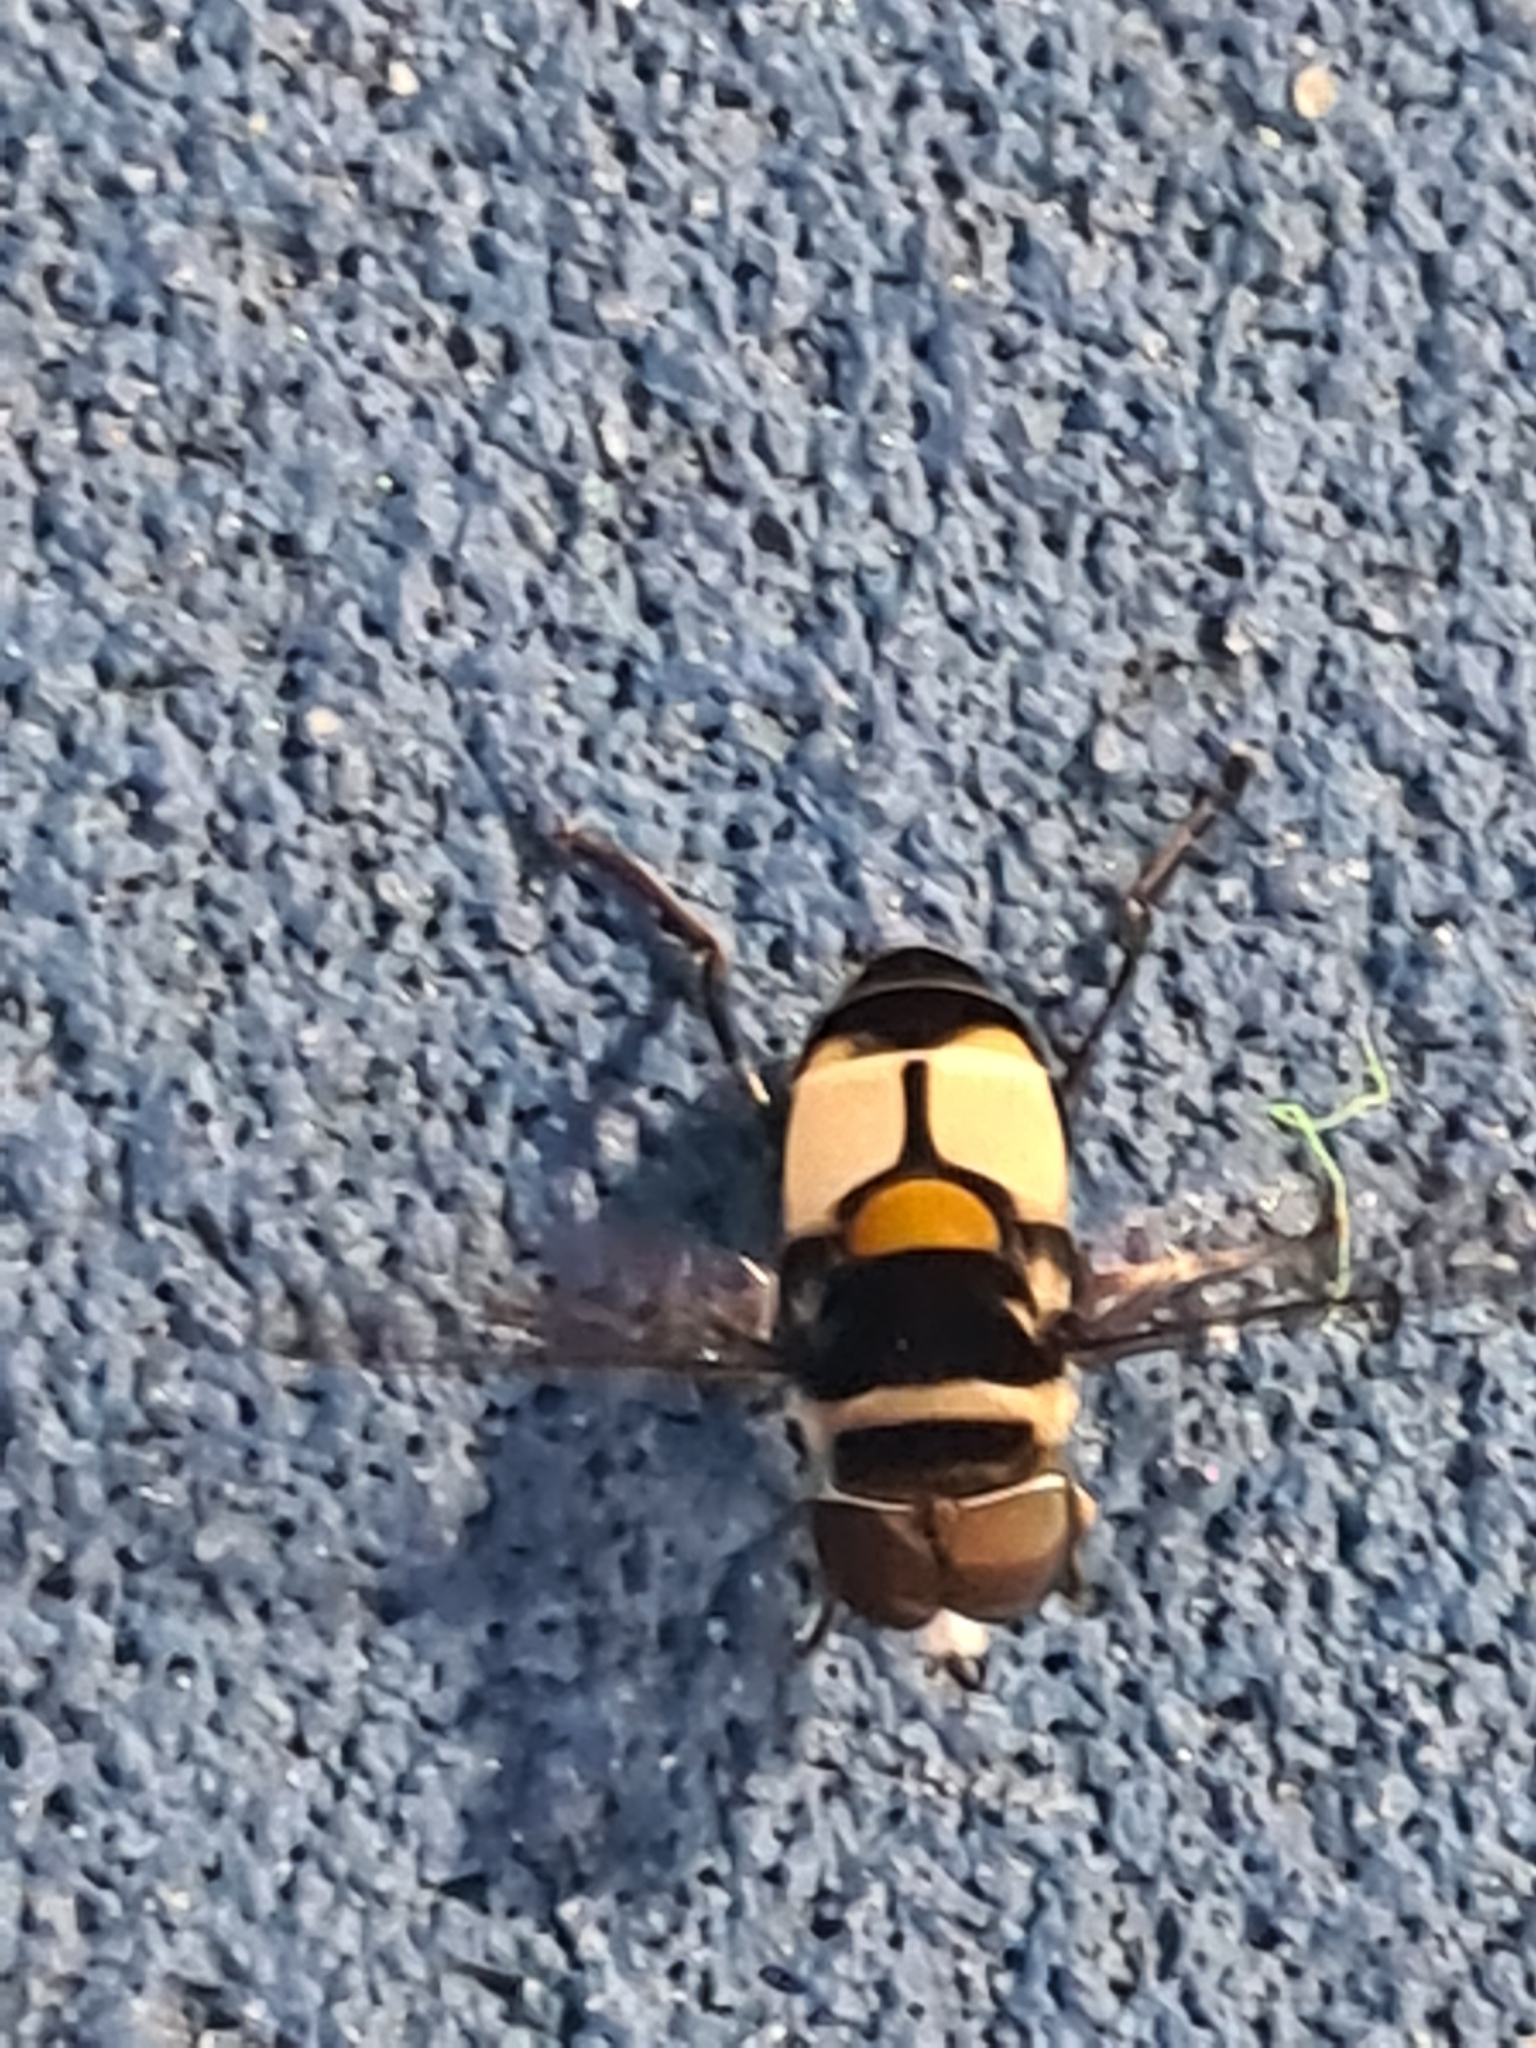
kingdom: Animalia
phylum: Arthropoda
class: Insecta
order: Diptera
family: Syrphidae
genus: Palpada
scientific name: Palpada albifrons
